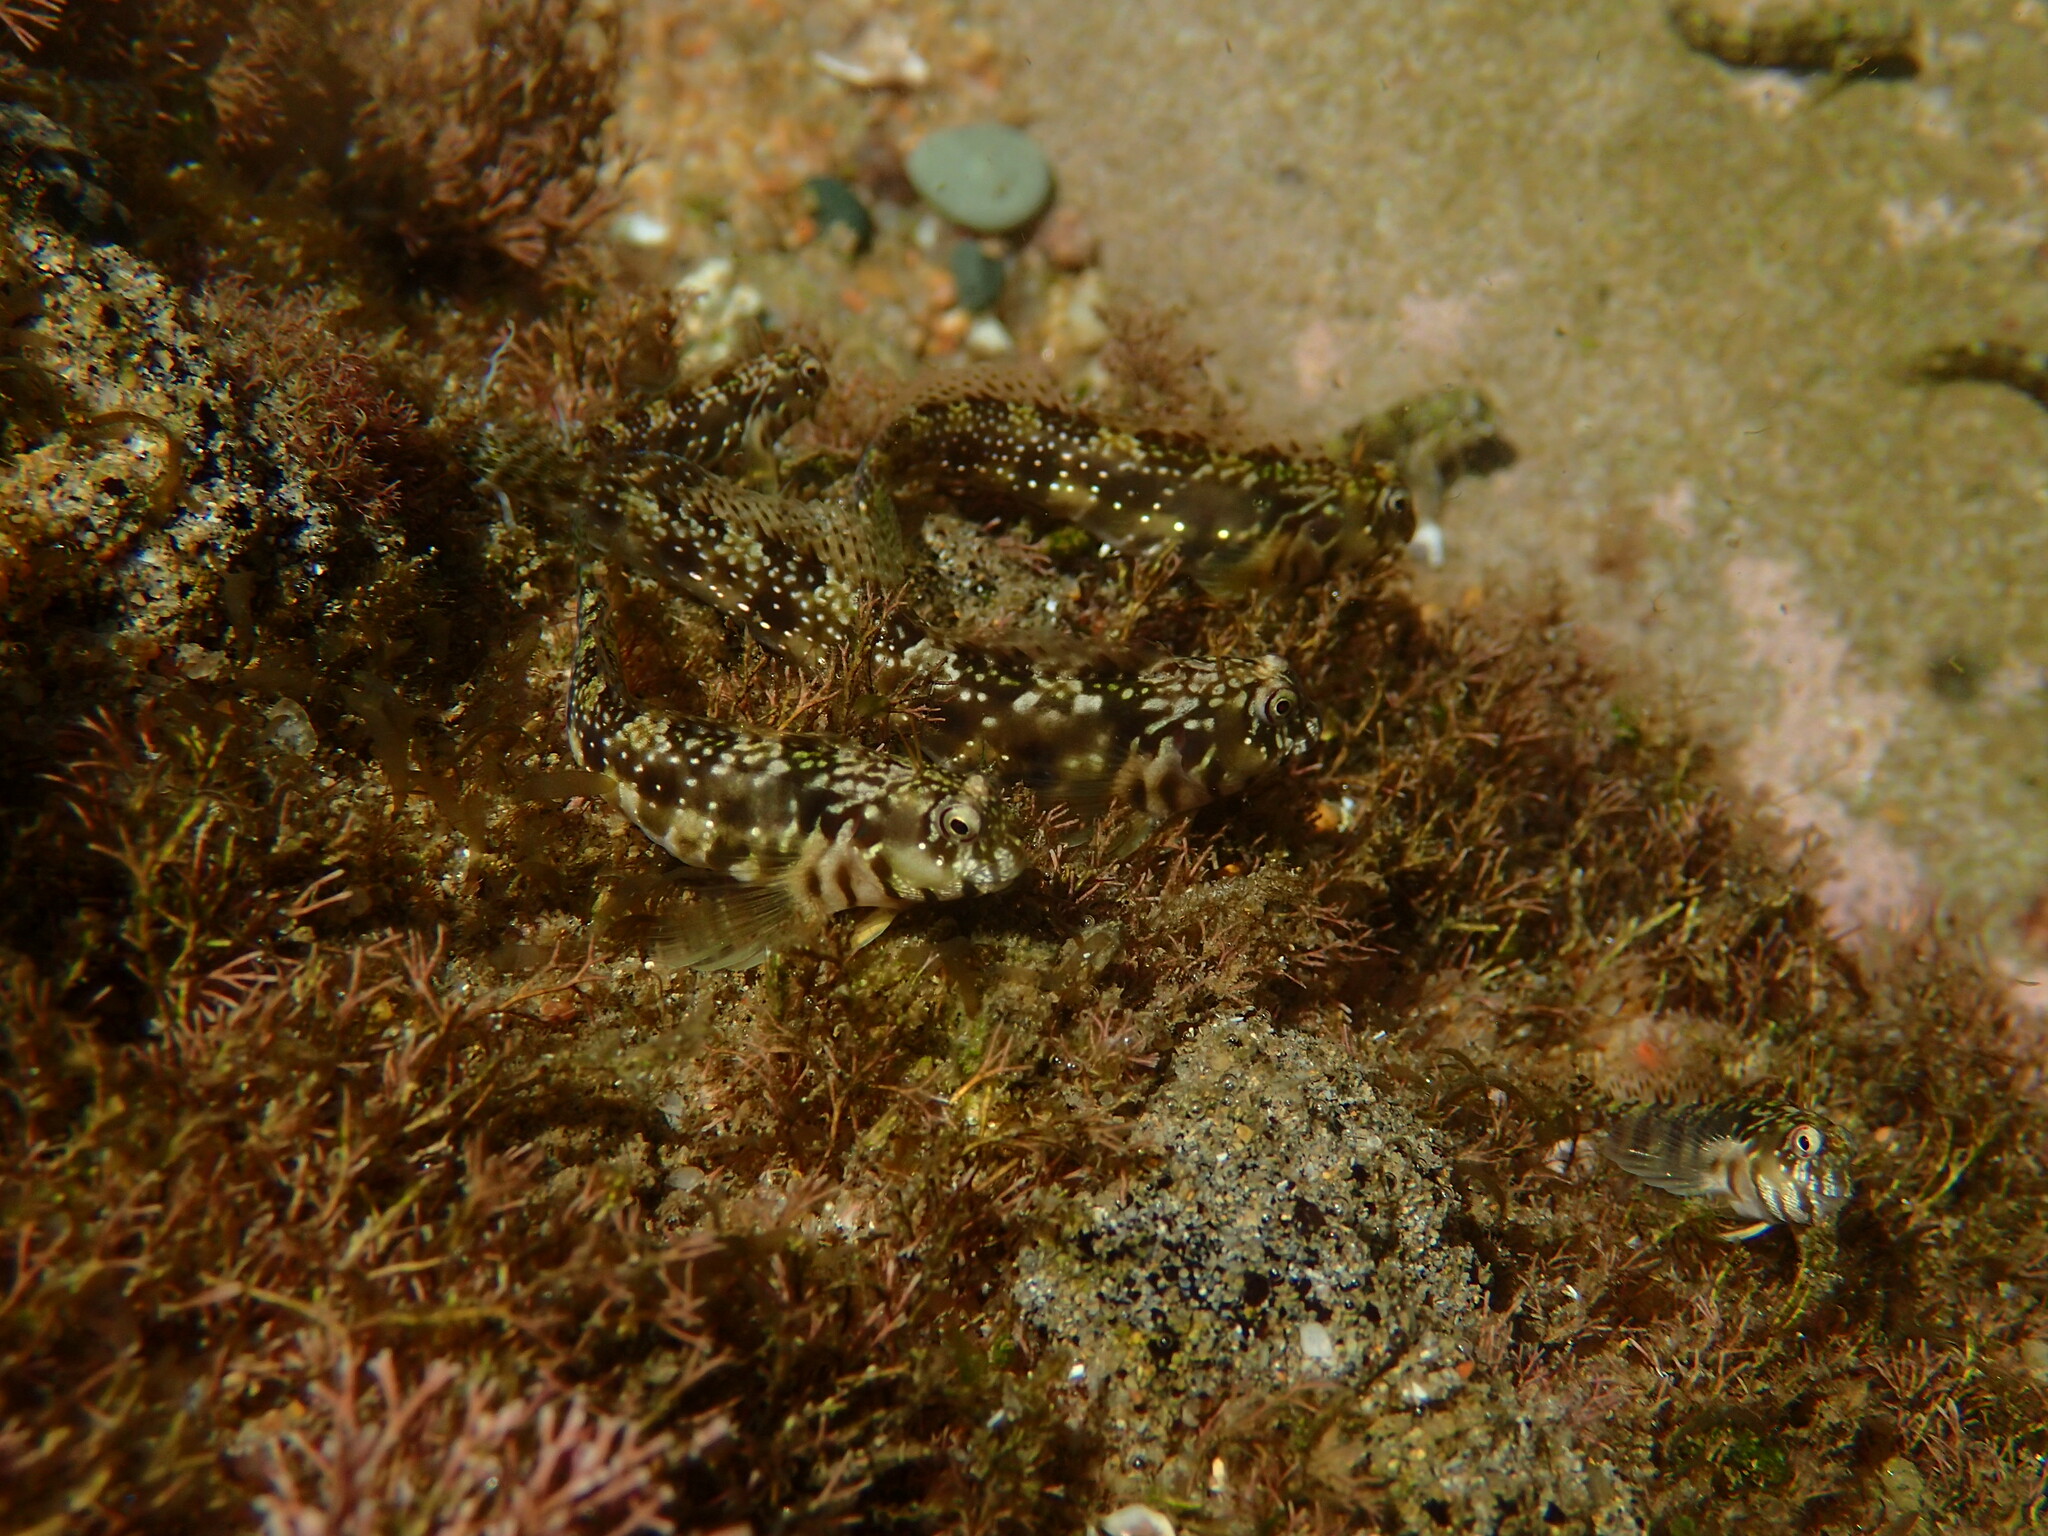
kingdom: Animalia
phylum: Chordata
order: Perciformes
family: Blenniidae
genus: Antennablennius
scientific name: Antennablennius bifilum
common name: Horned rockskipper
